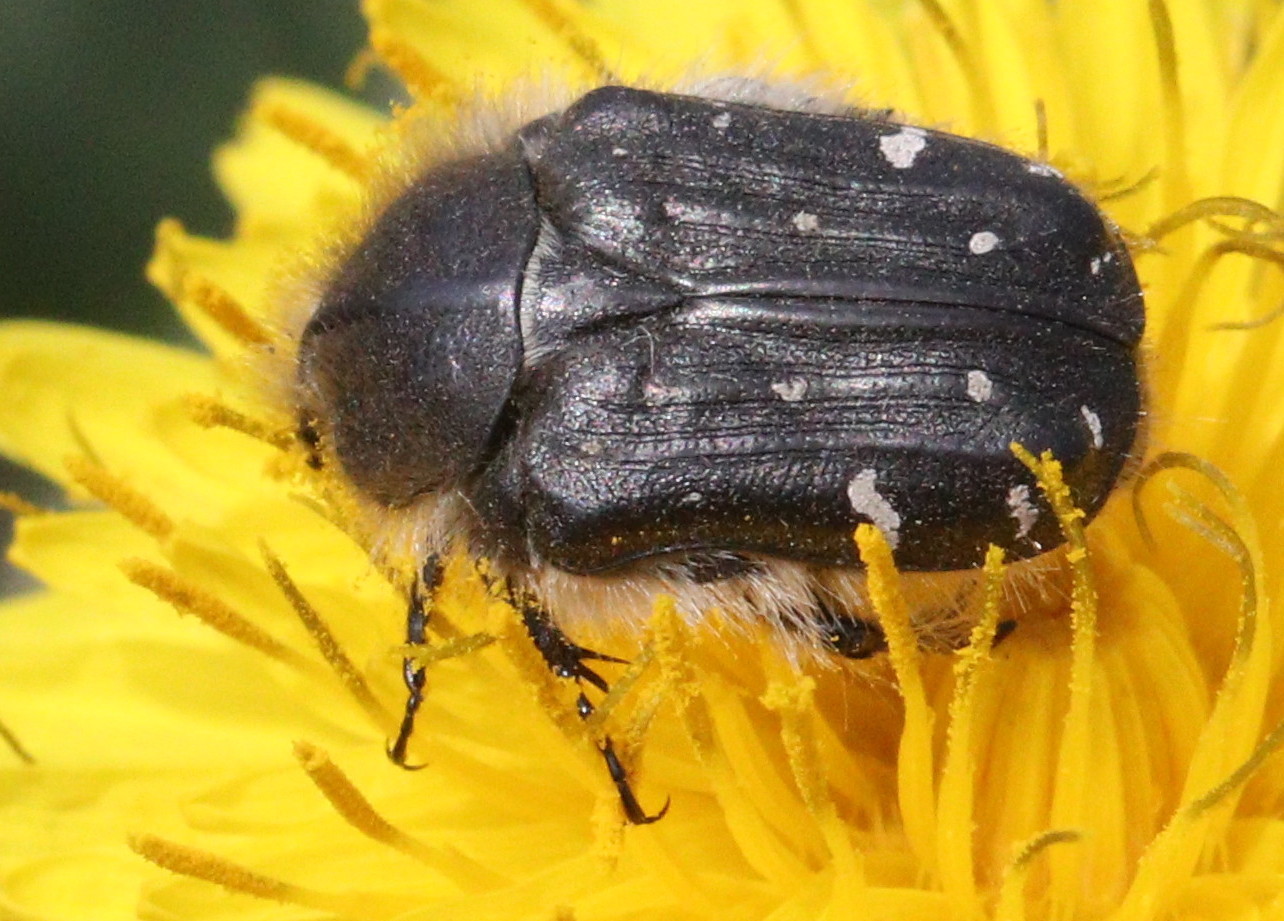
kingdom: Animalia
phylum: Arthropoda
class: Insecta
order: Coleoptera
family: Scarabaeidae
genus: Tropinota
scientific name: Tropinota hirta
